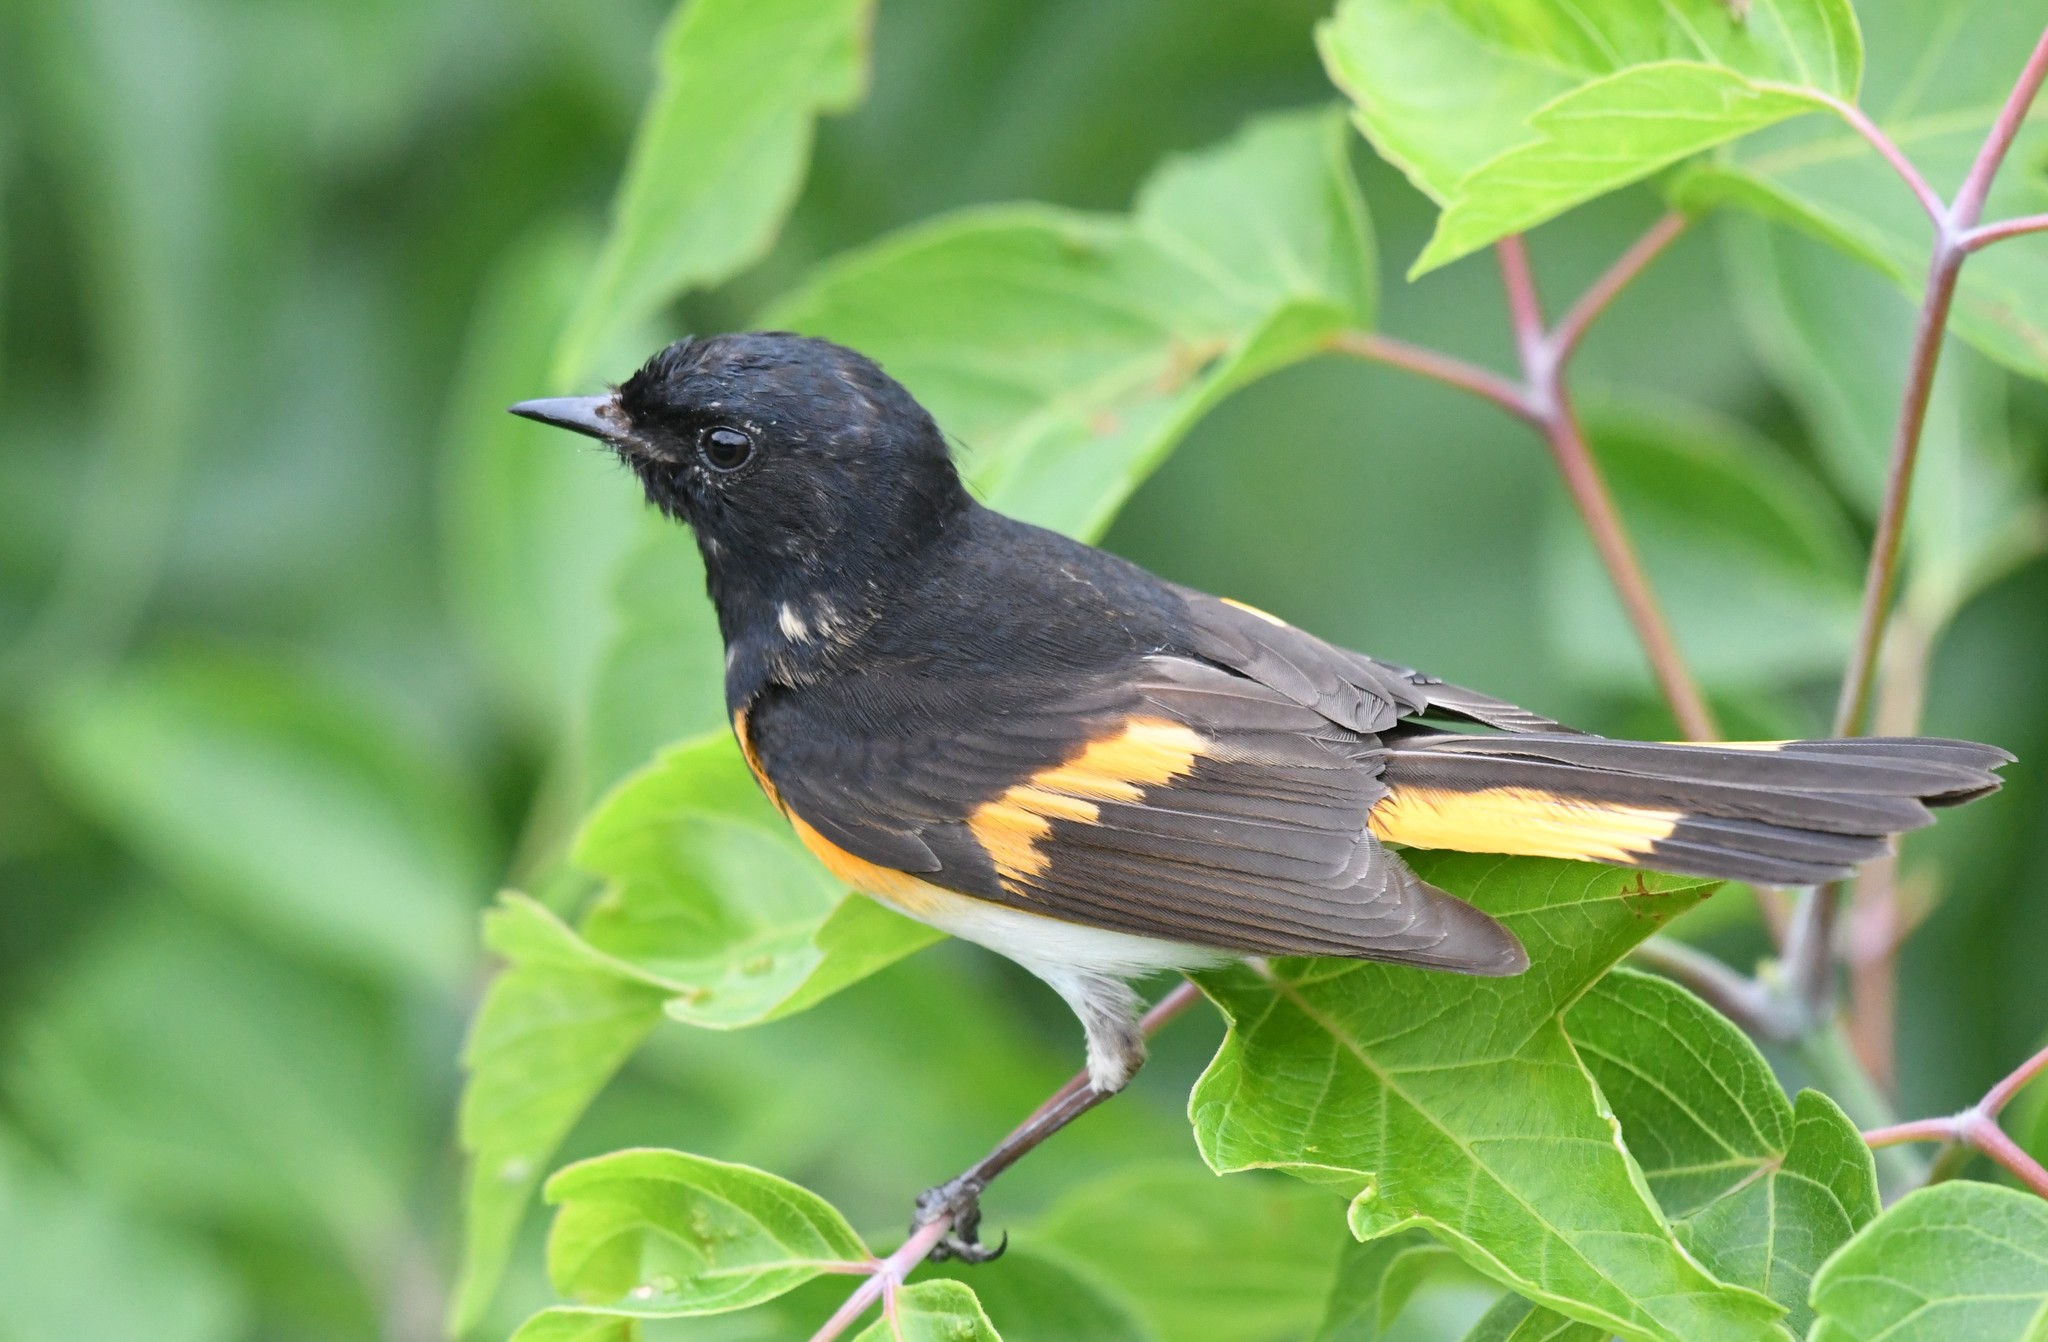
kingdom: Animalia
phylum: Chordata
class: Aves
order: Passeriformes
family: Parulidae
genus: Setophaga
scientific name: Setophaga ruticilla
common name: American redstart
